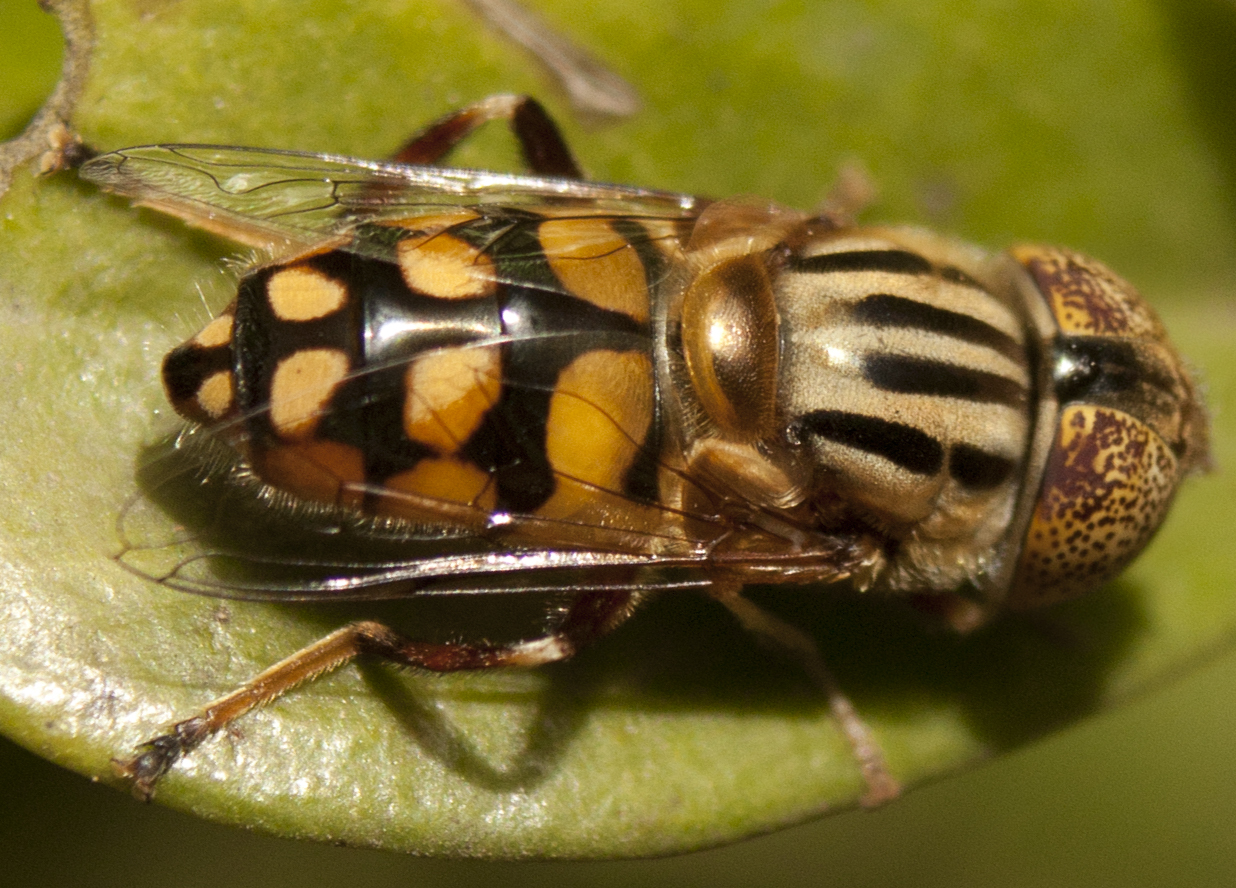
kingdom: Animalia
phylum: Arthropoda
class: Insecta
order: Diptera
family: Syrphidae
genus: Eristalinus
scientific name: Eristalinus punctulatus
